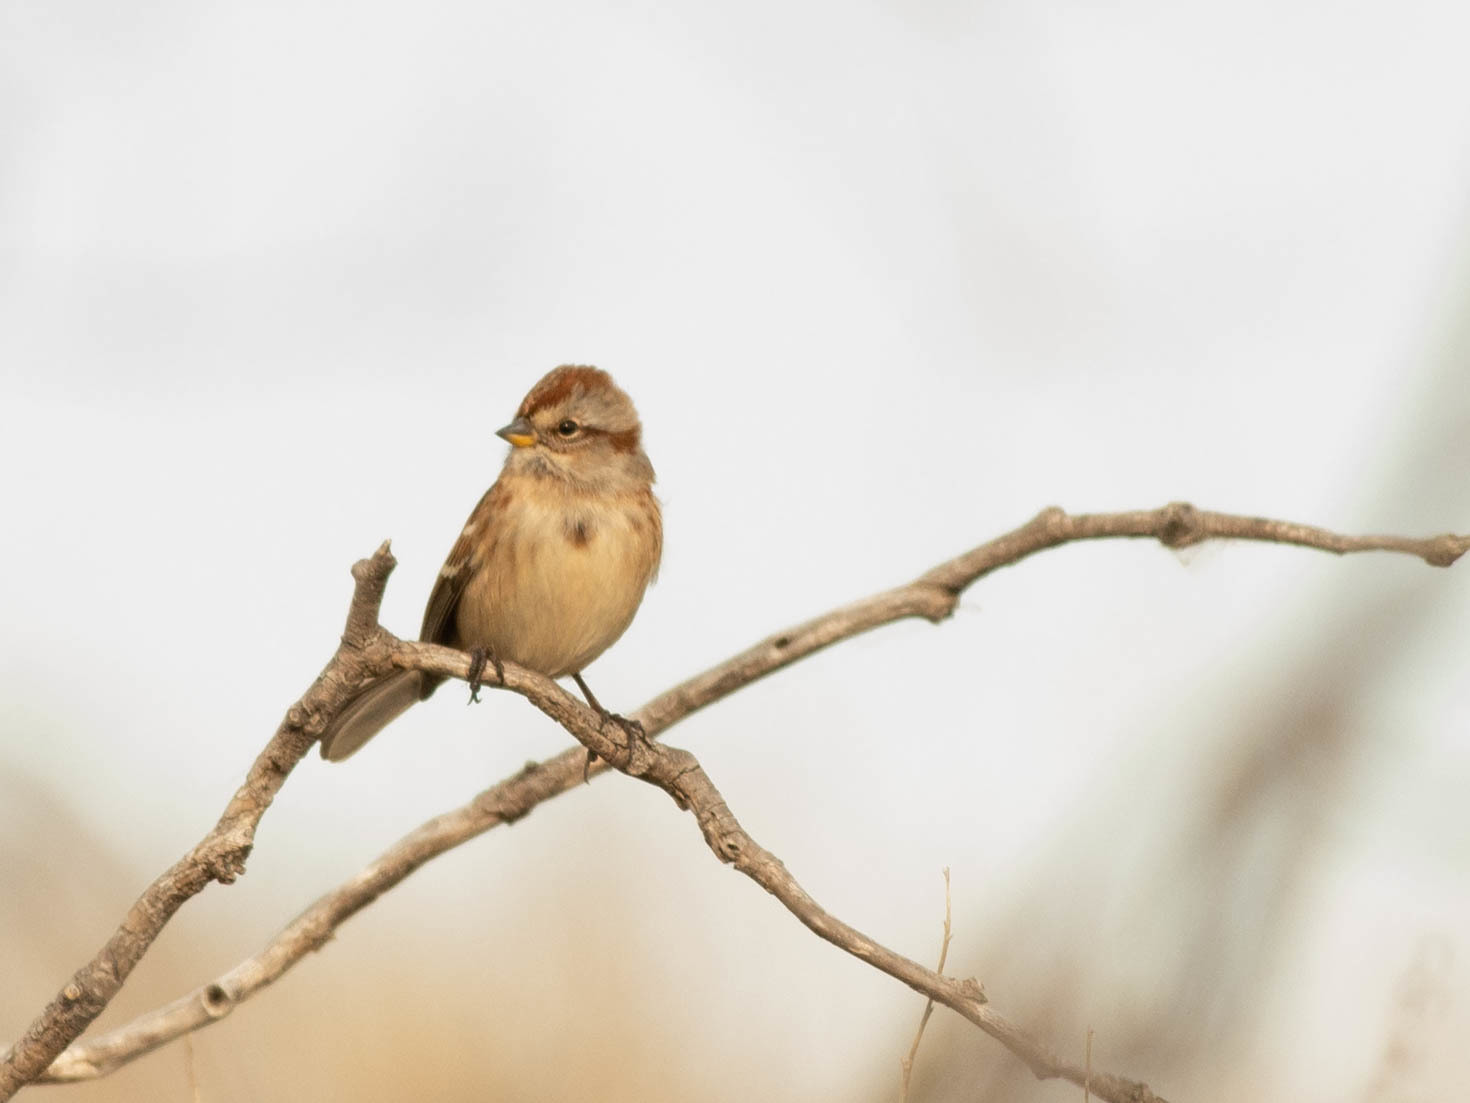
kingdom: Animalia
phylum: Chordata
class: Aves
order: Passeriformes
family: Passerellidae
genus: Spizelloides
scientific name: Spizelloides arborea
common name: American tree sparrow
